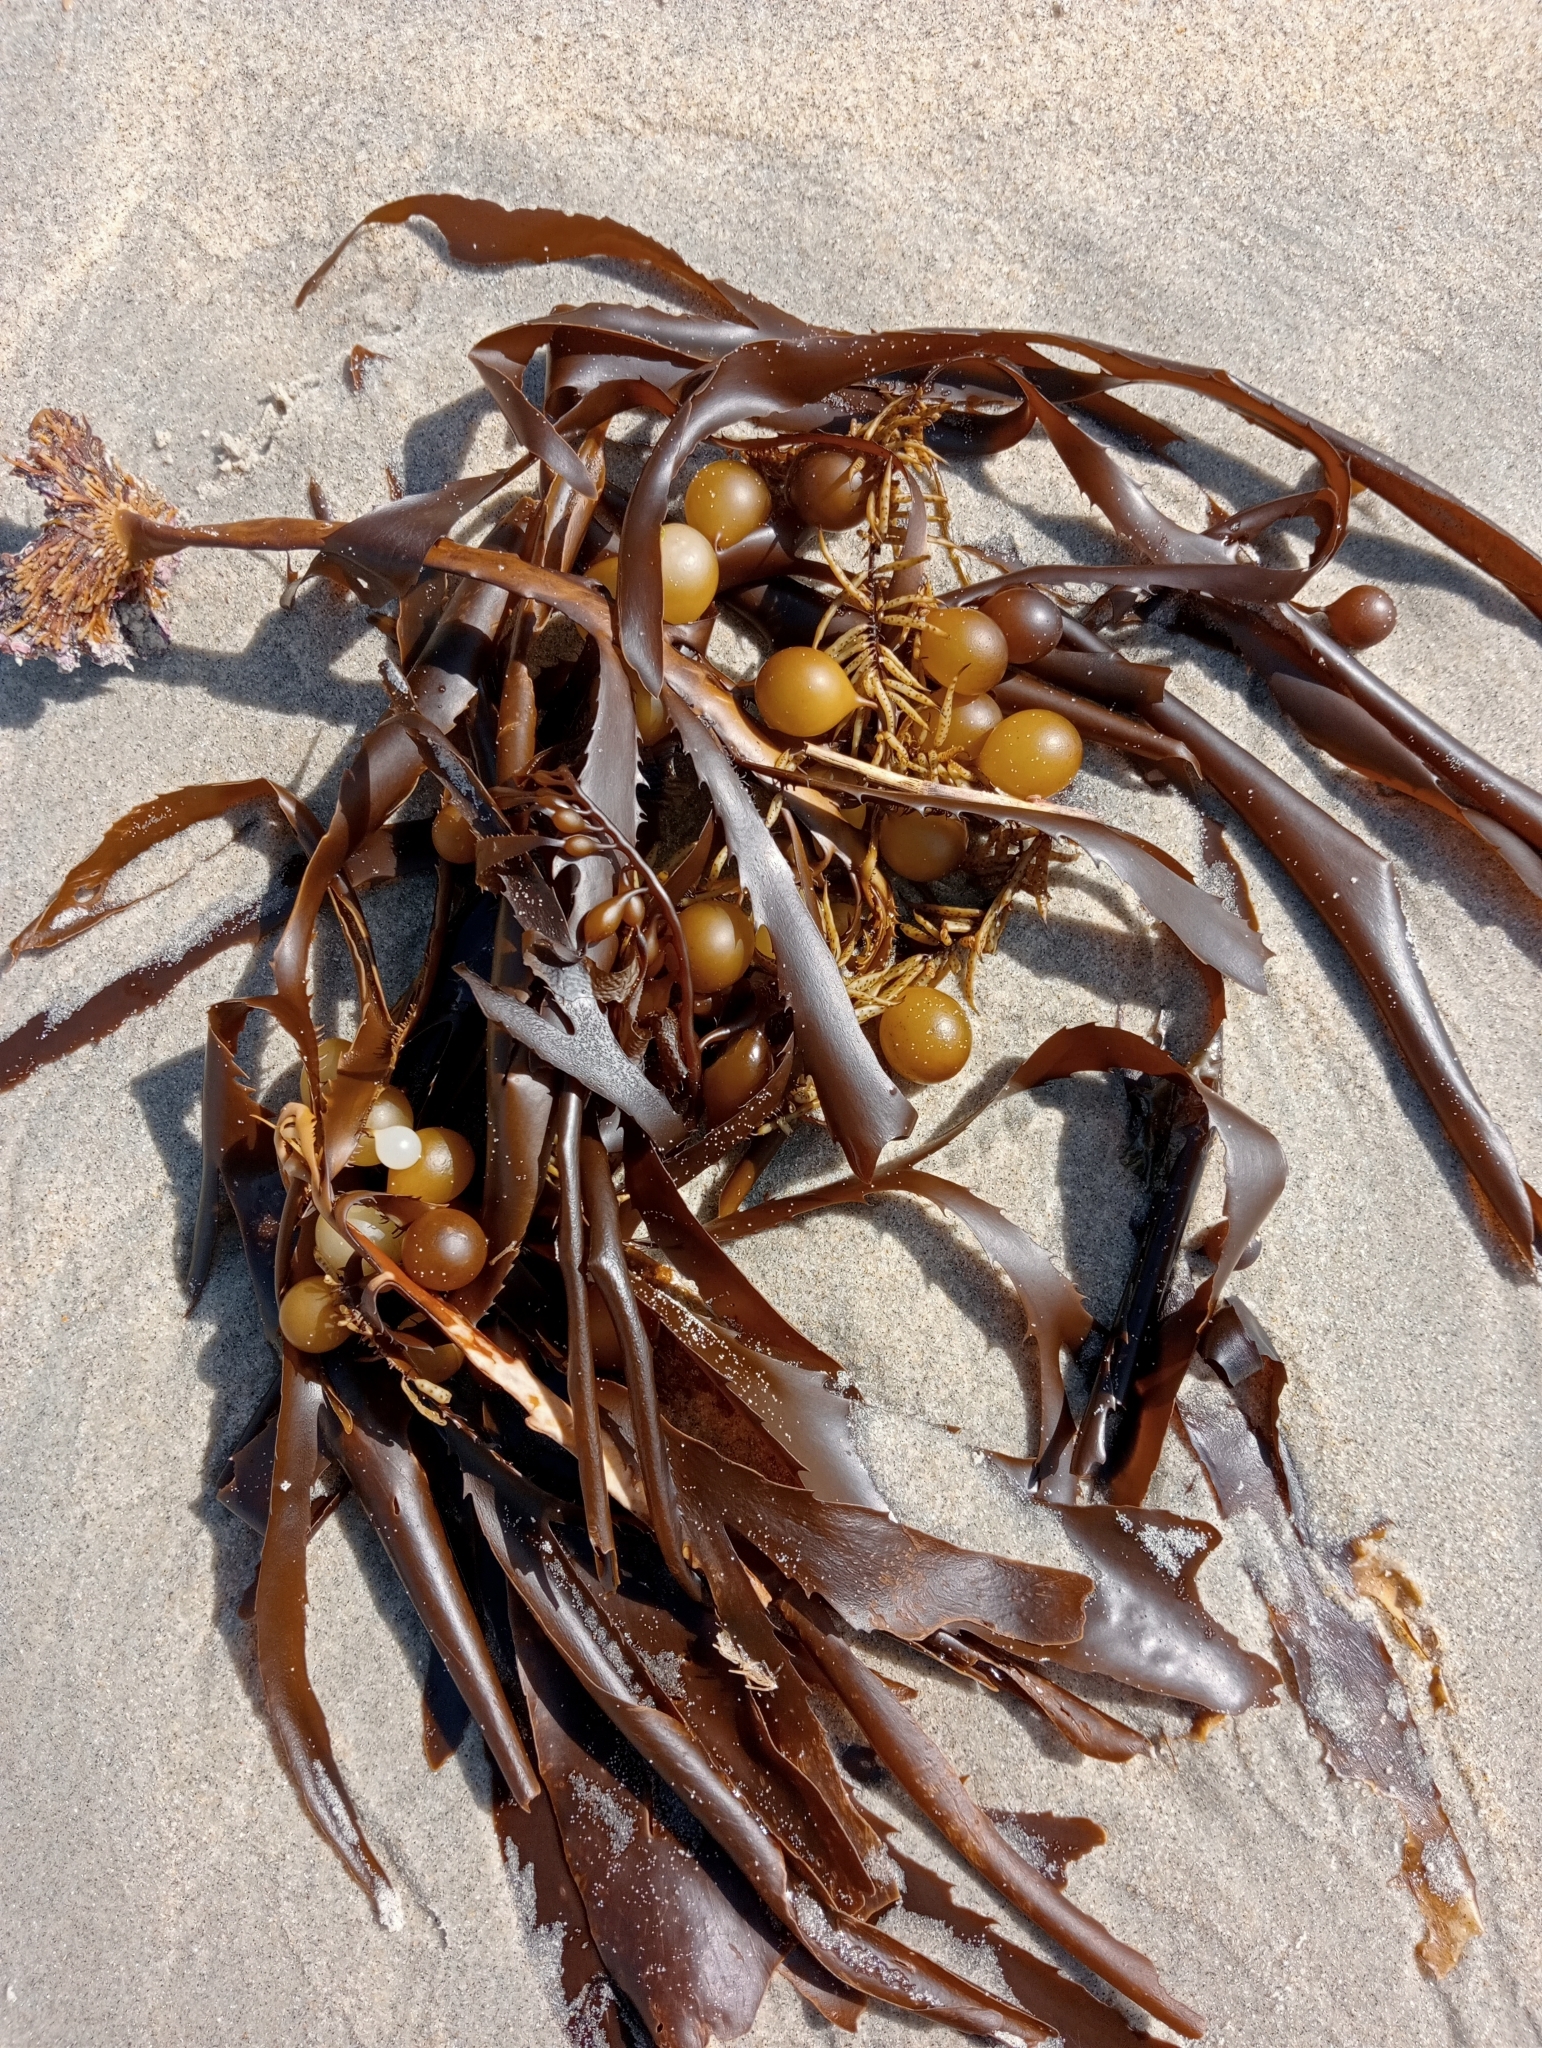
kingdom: Chromista
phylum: Ochrophyta
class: Phaeophyceae
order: Fucales
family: Seirococcaceae
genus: Marginariella
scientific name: Marginariella urvilliana
